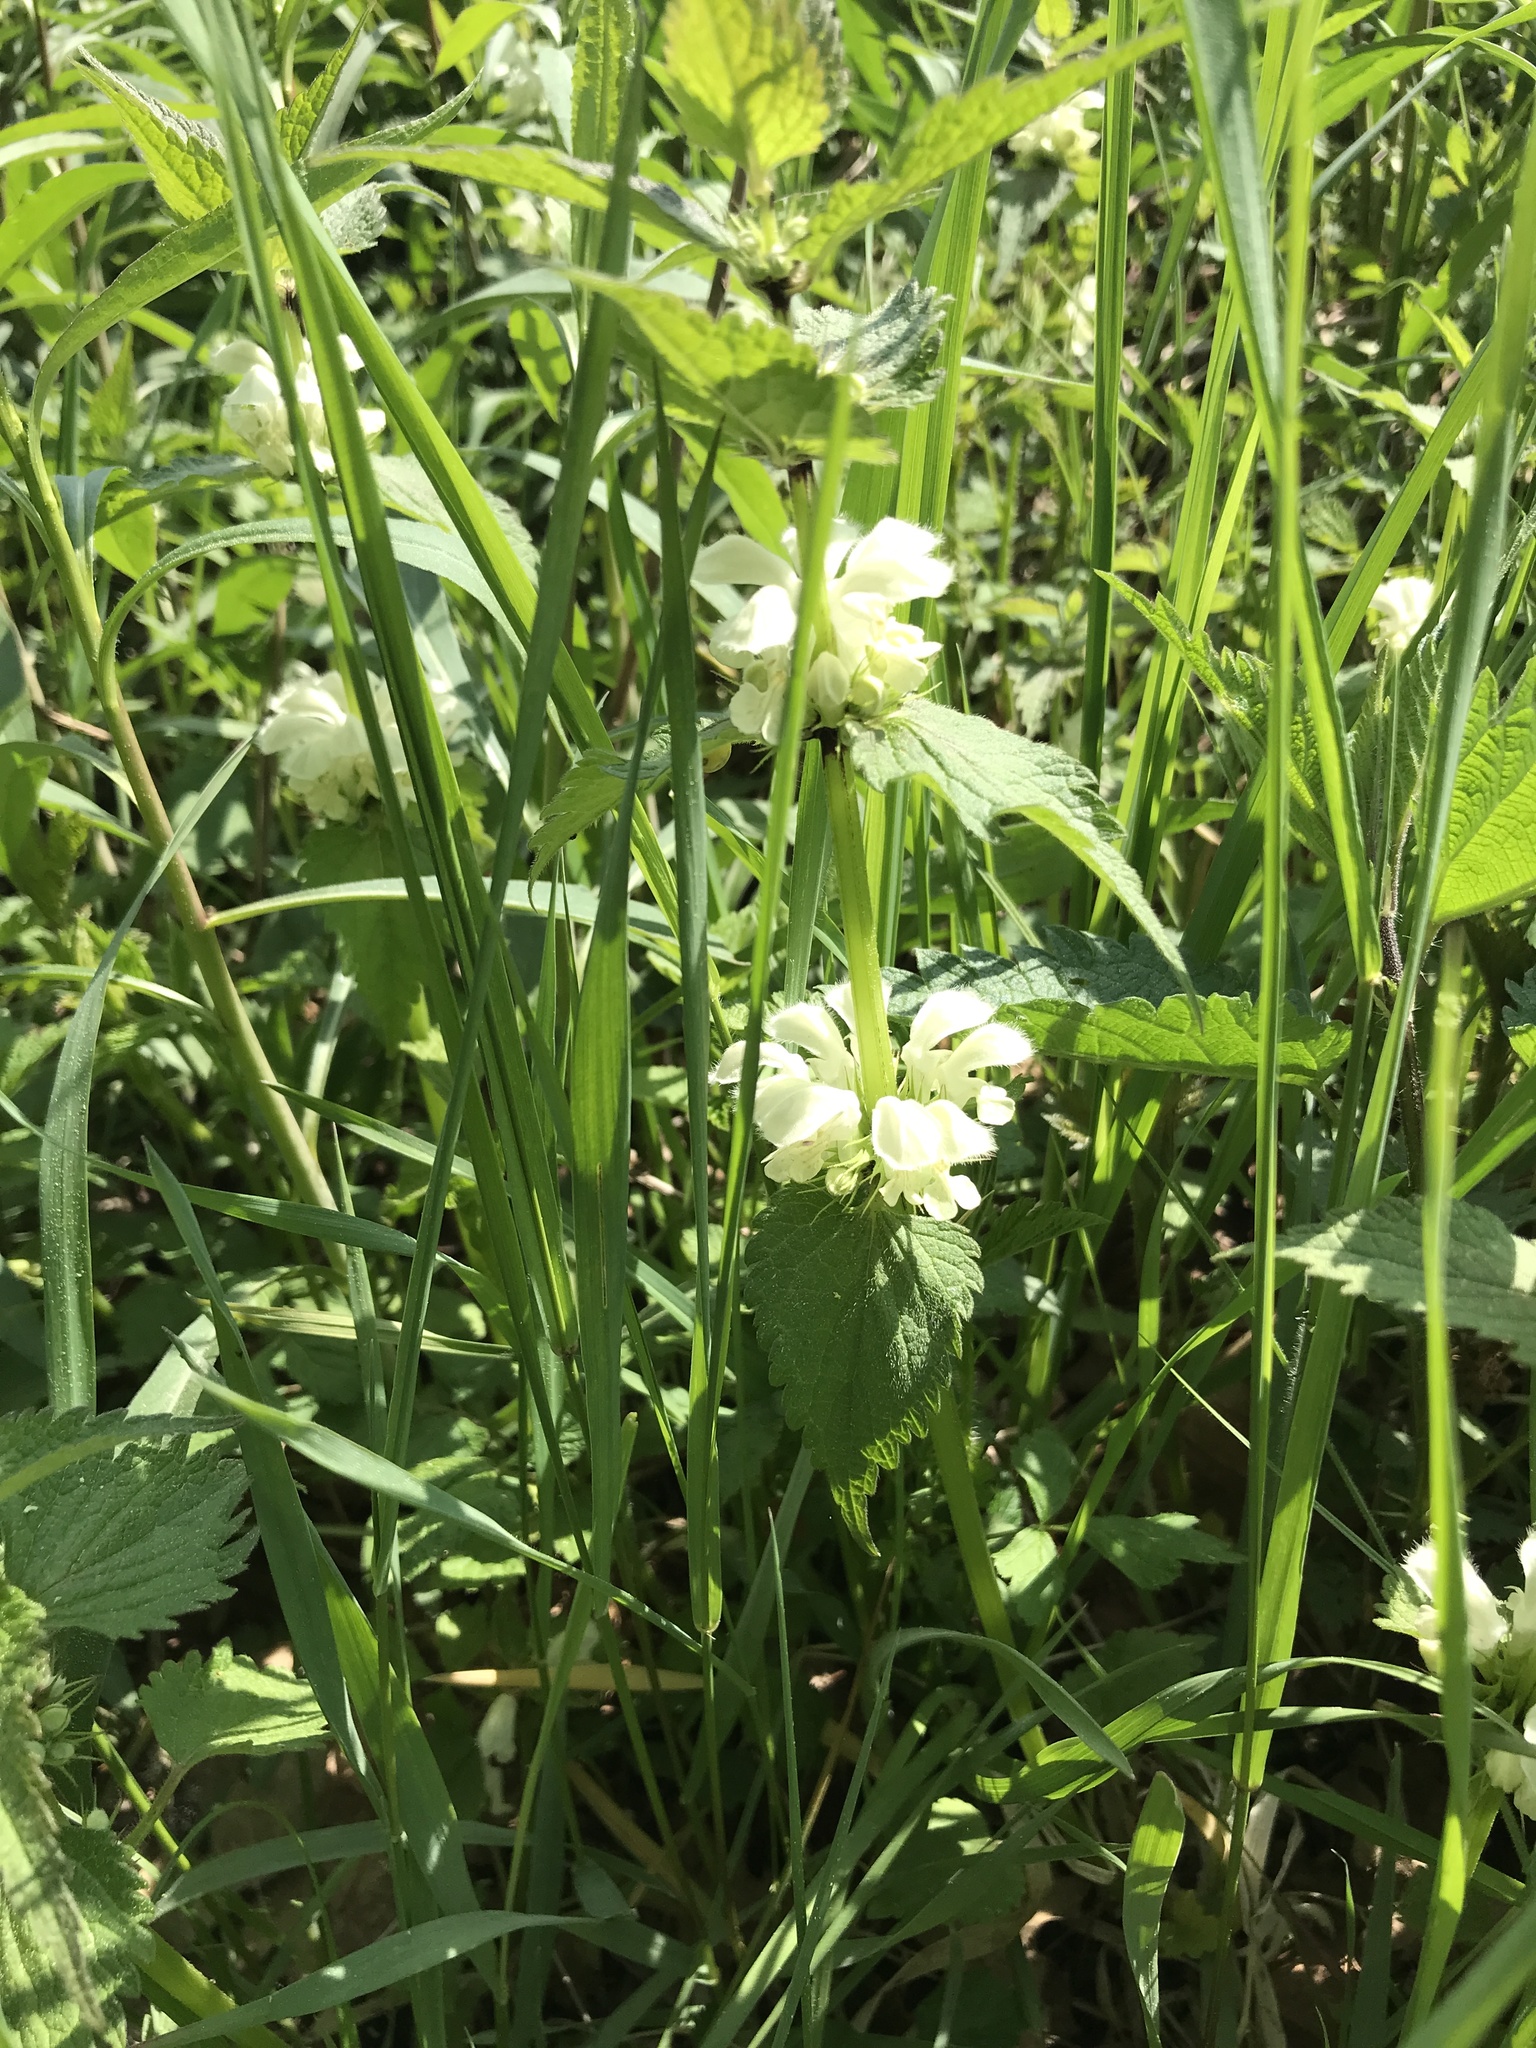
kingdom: Plantae
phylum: Tracheophyta
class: Magnoliopsida
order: Lamiales
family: Lamiaceae
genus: Lamium
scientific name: Lamium album
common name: White dead-nettle
